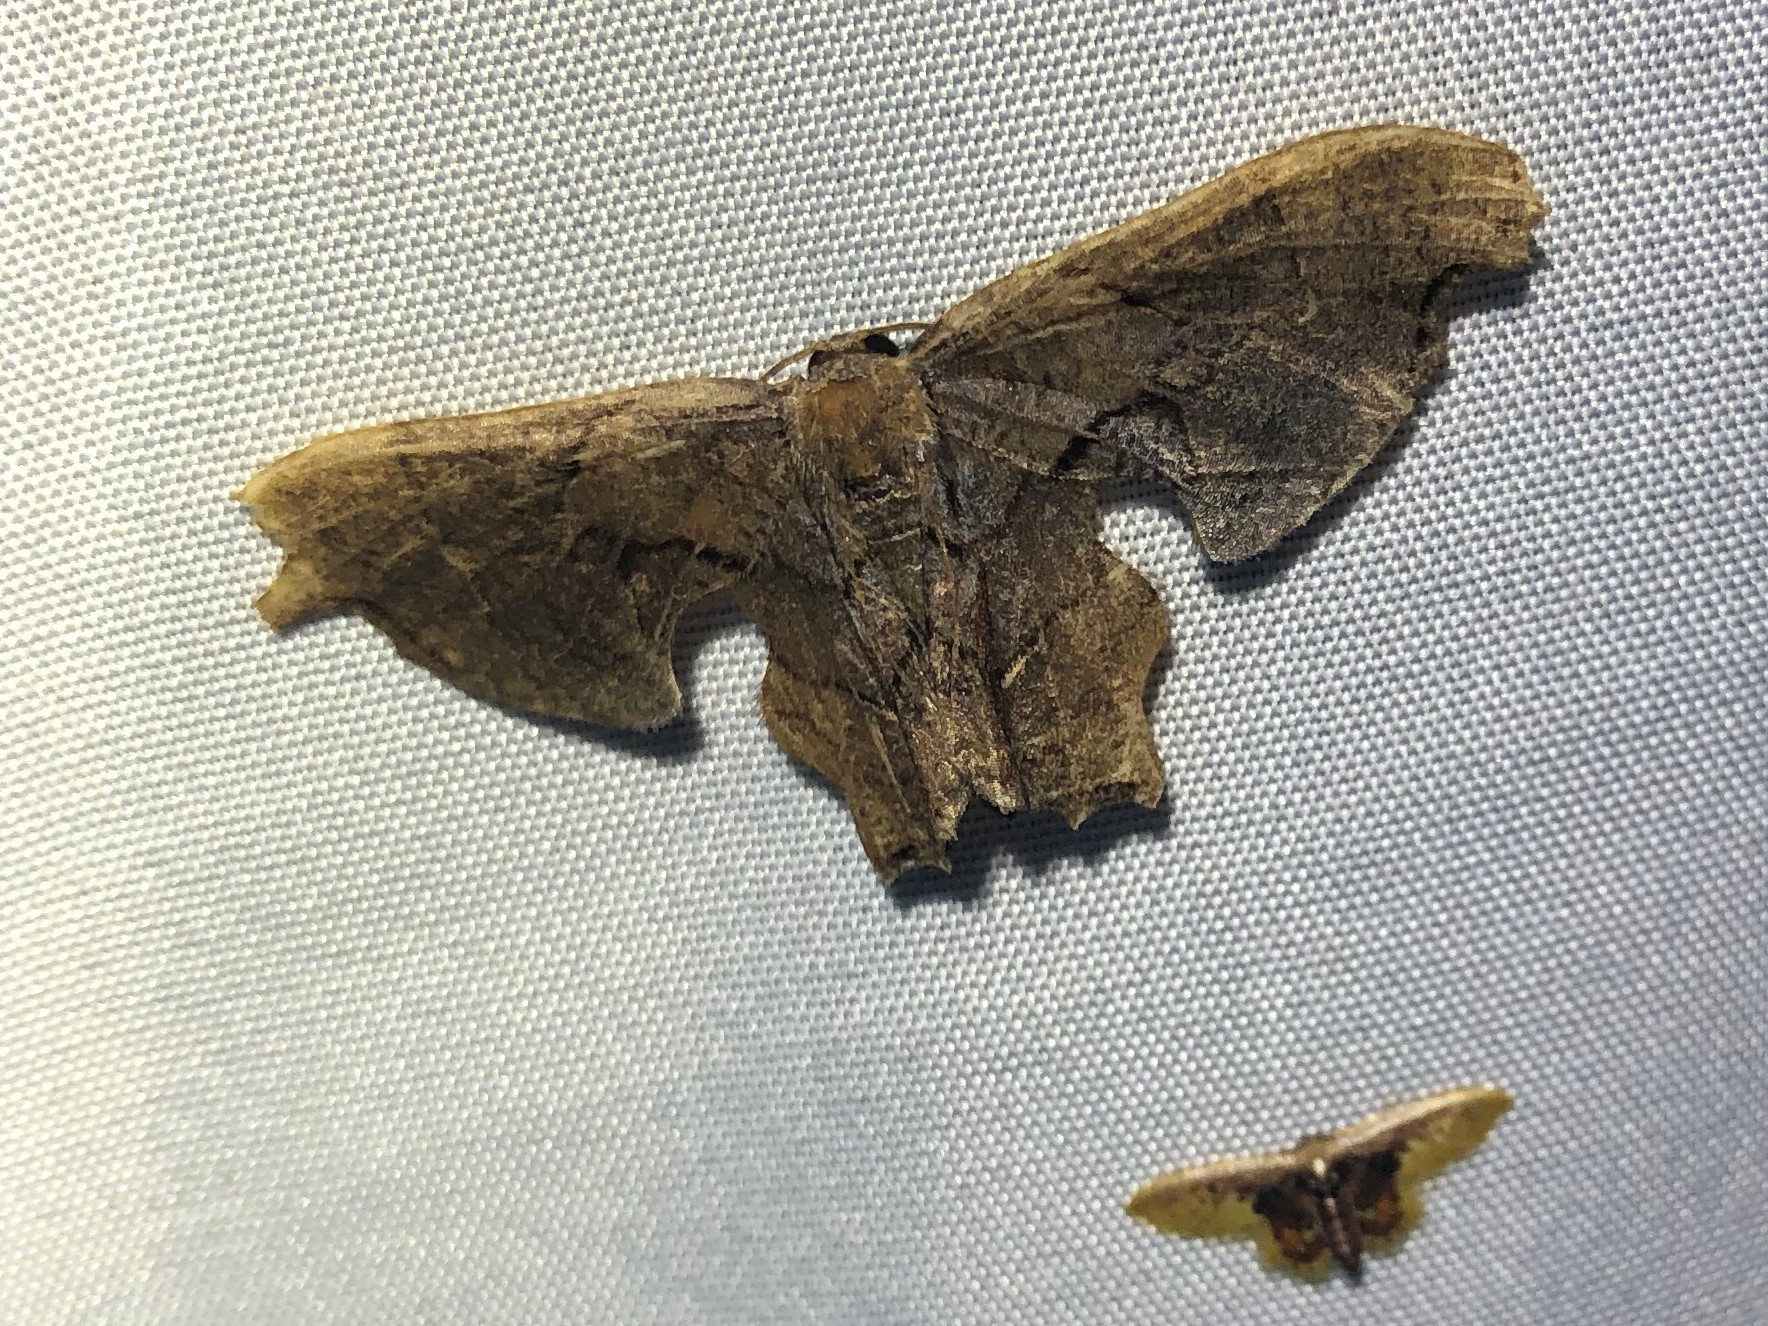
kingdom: Animalia
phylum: Arthropoda
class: Insecta
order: Lepidoptera
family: Geometridae
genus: Idaea
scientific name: Idaea helleria
